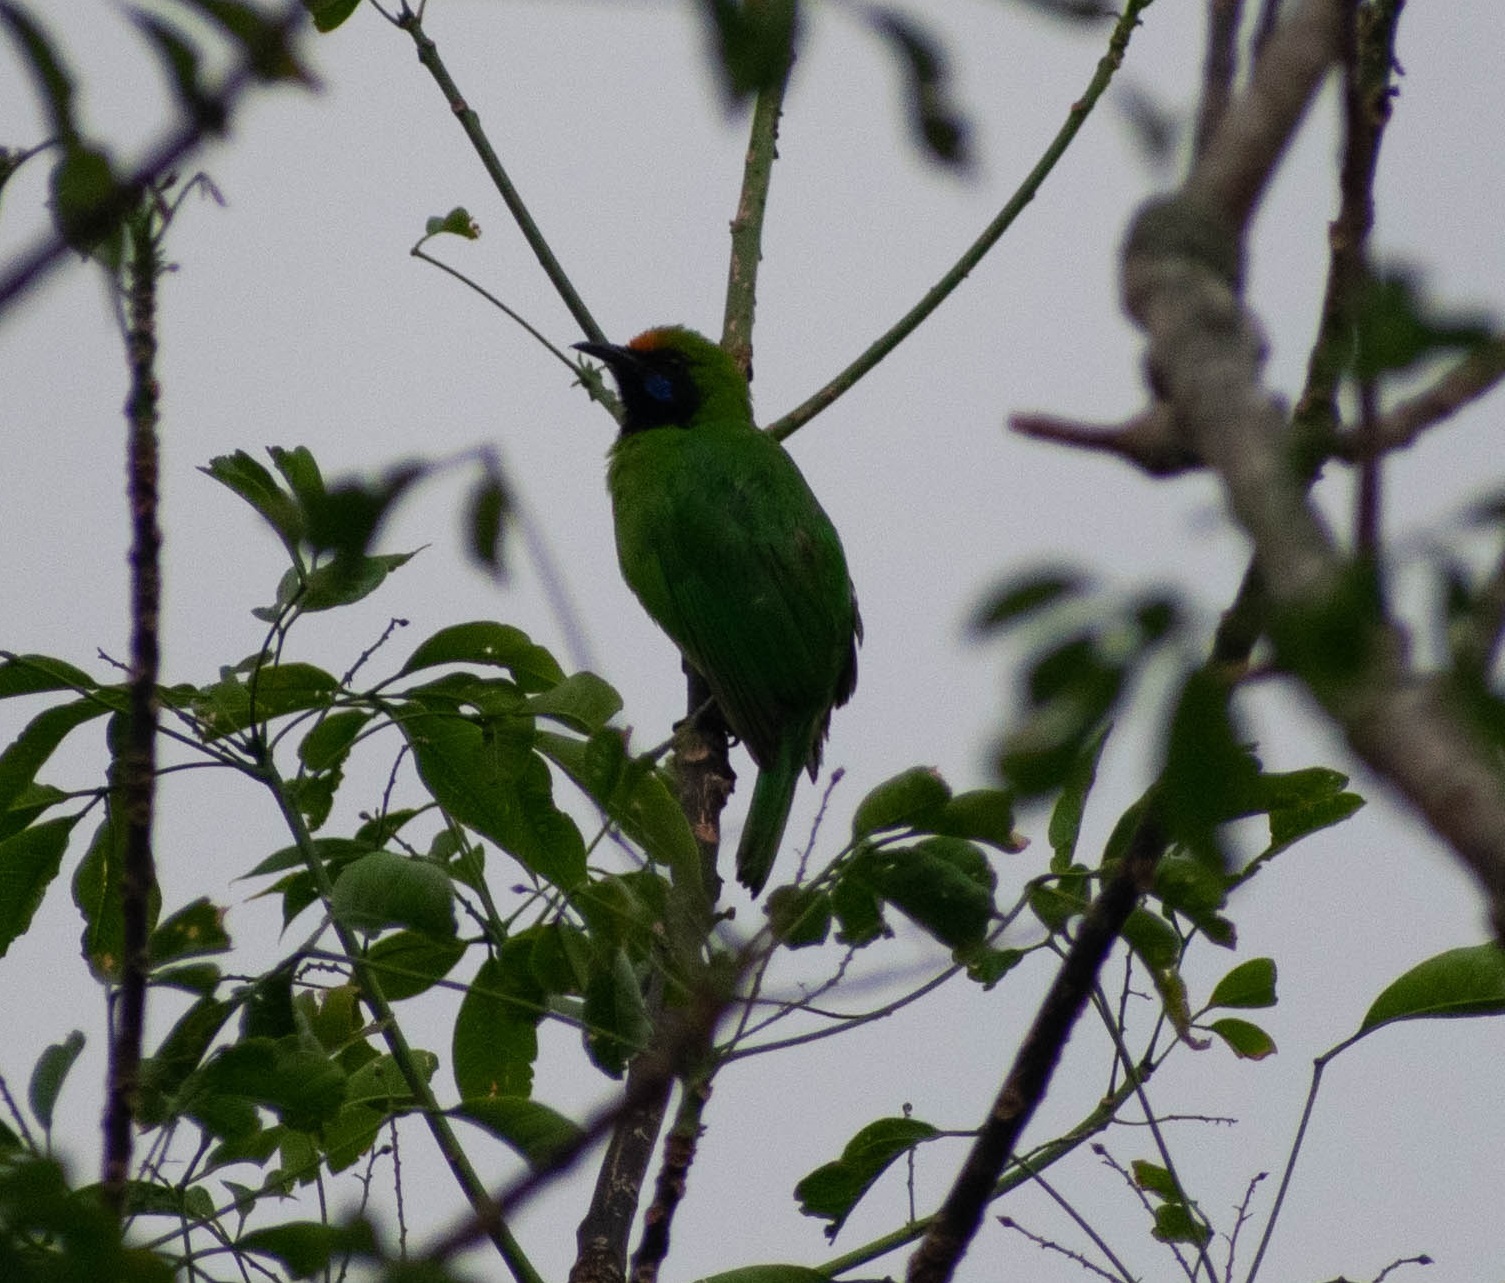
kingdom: Animalia
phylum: Chordata
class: Aves
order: Passeriformes
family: Chloropseidae
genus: Chloropsis
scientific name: Chloropsis aurifrons
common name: Golden-fronted leafbird
